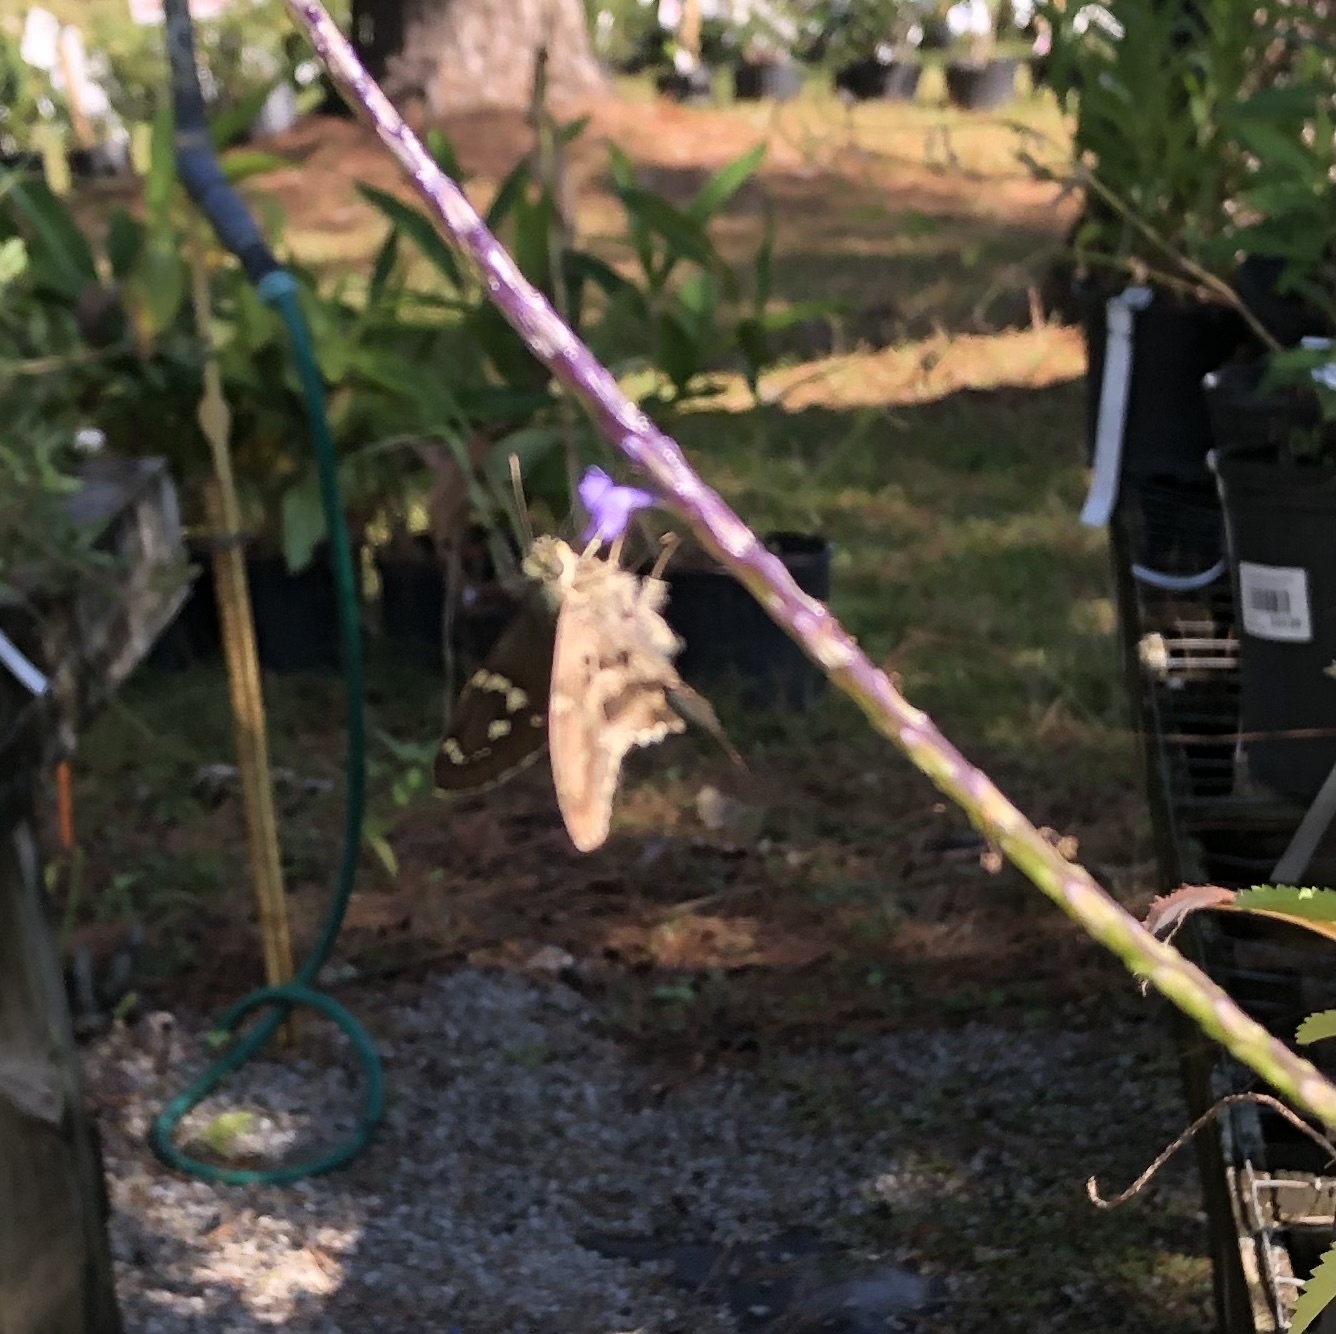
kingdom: Animalia
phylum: Arthropoda
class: Insecta
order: Lepidoptera
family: Hesperiidae
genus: Urbanus
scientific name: Urbanus proteus
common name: Long-tailed skipper
